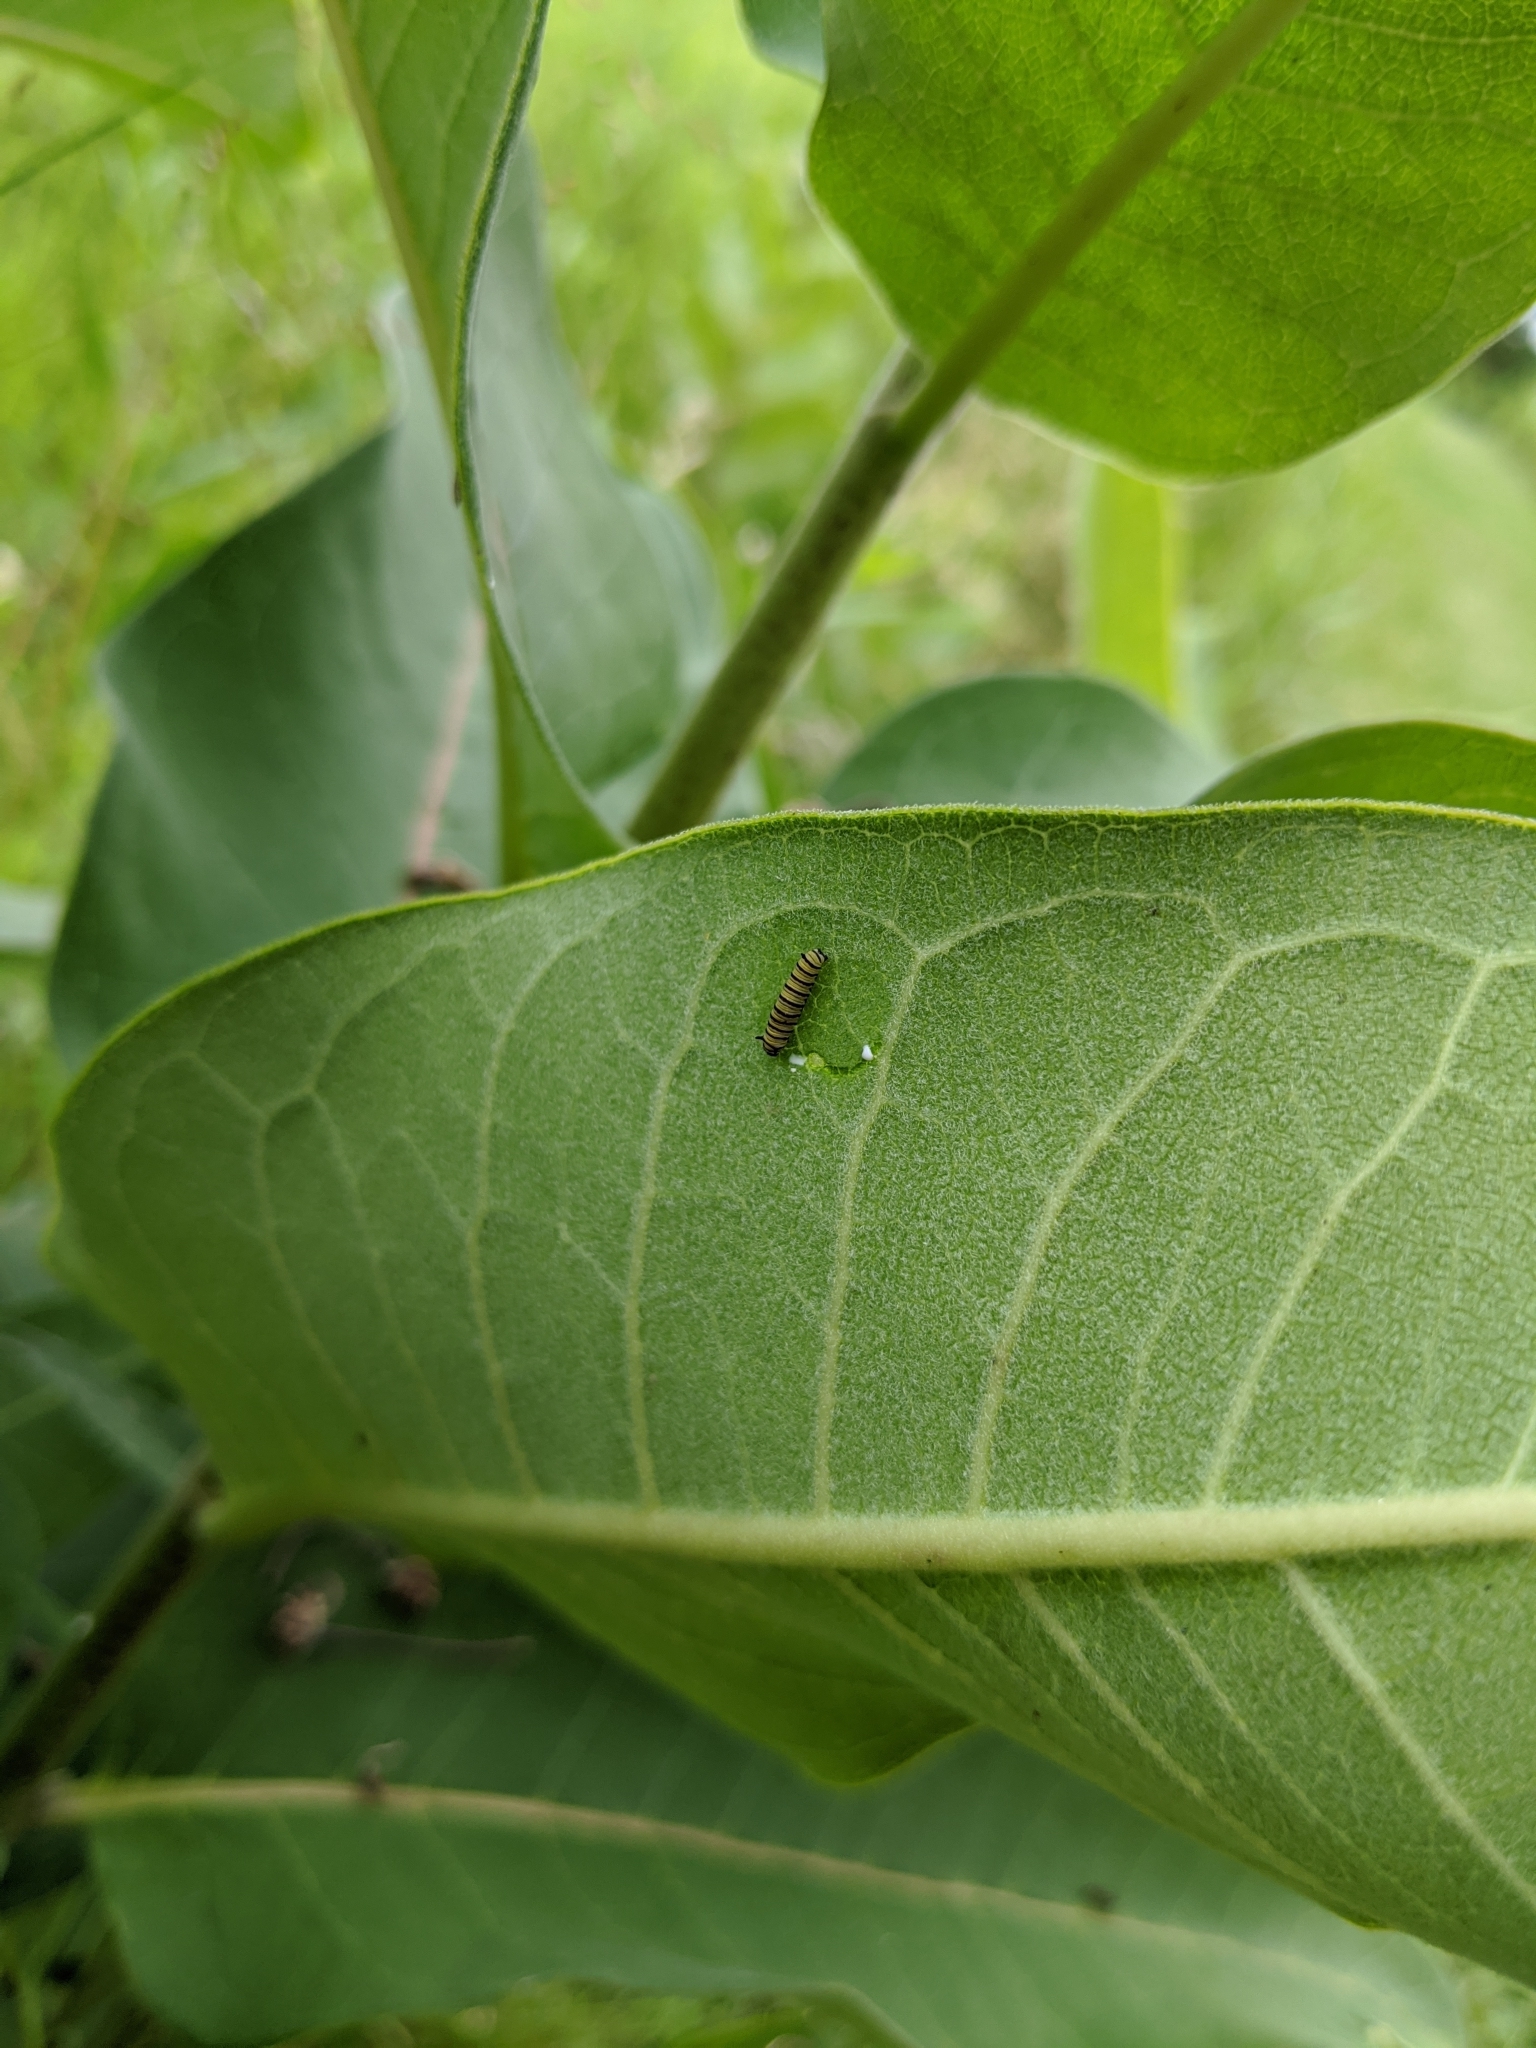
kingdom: Animalia
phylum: Arthropoda
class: Insecta
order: Lepidoptera
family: Nymphalidae
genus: Danaus
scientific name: Danaus plexippus
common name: Monarch
